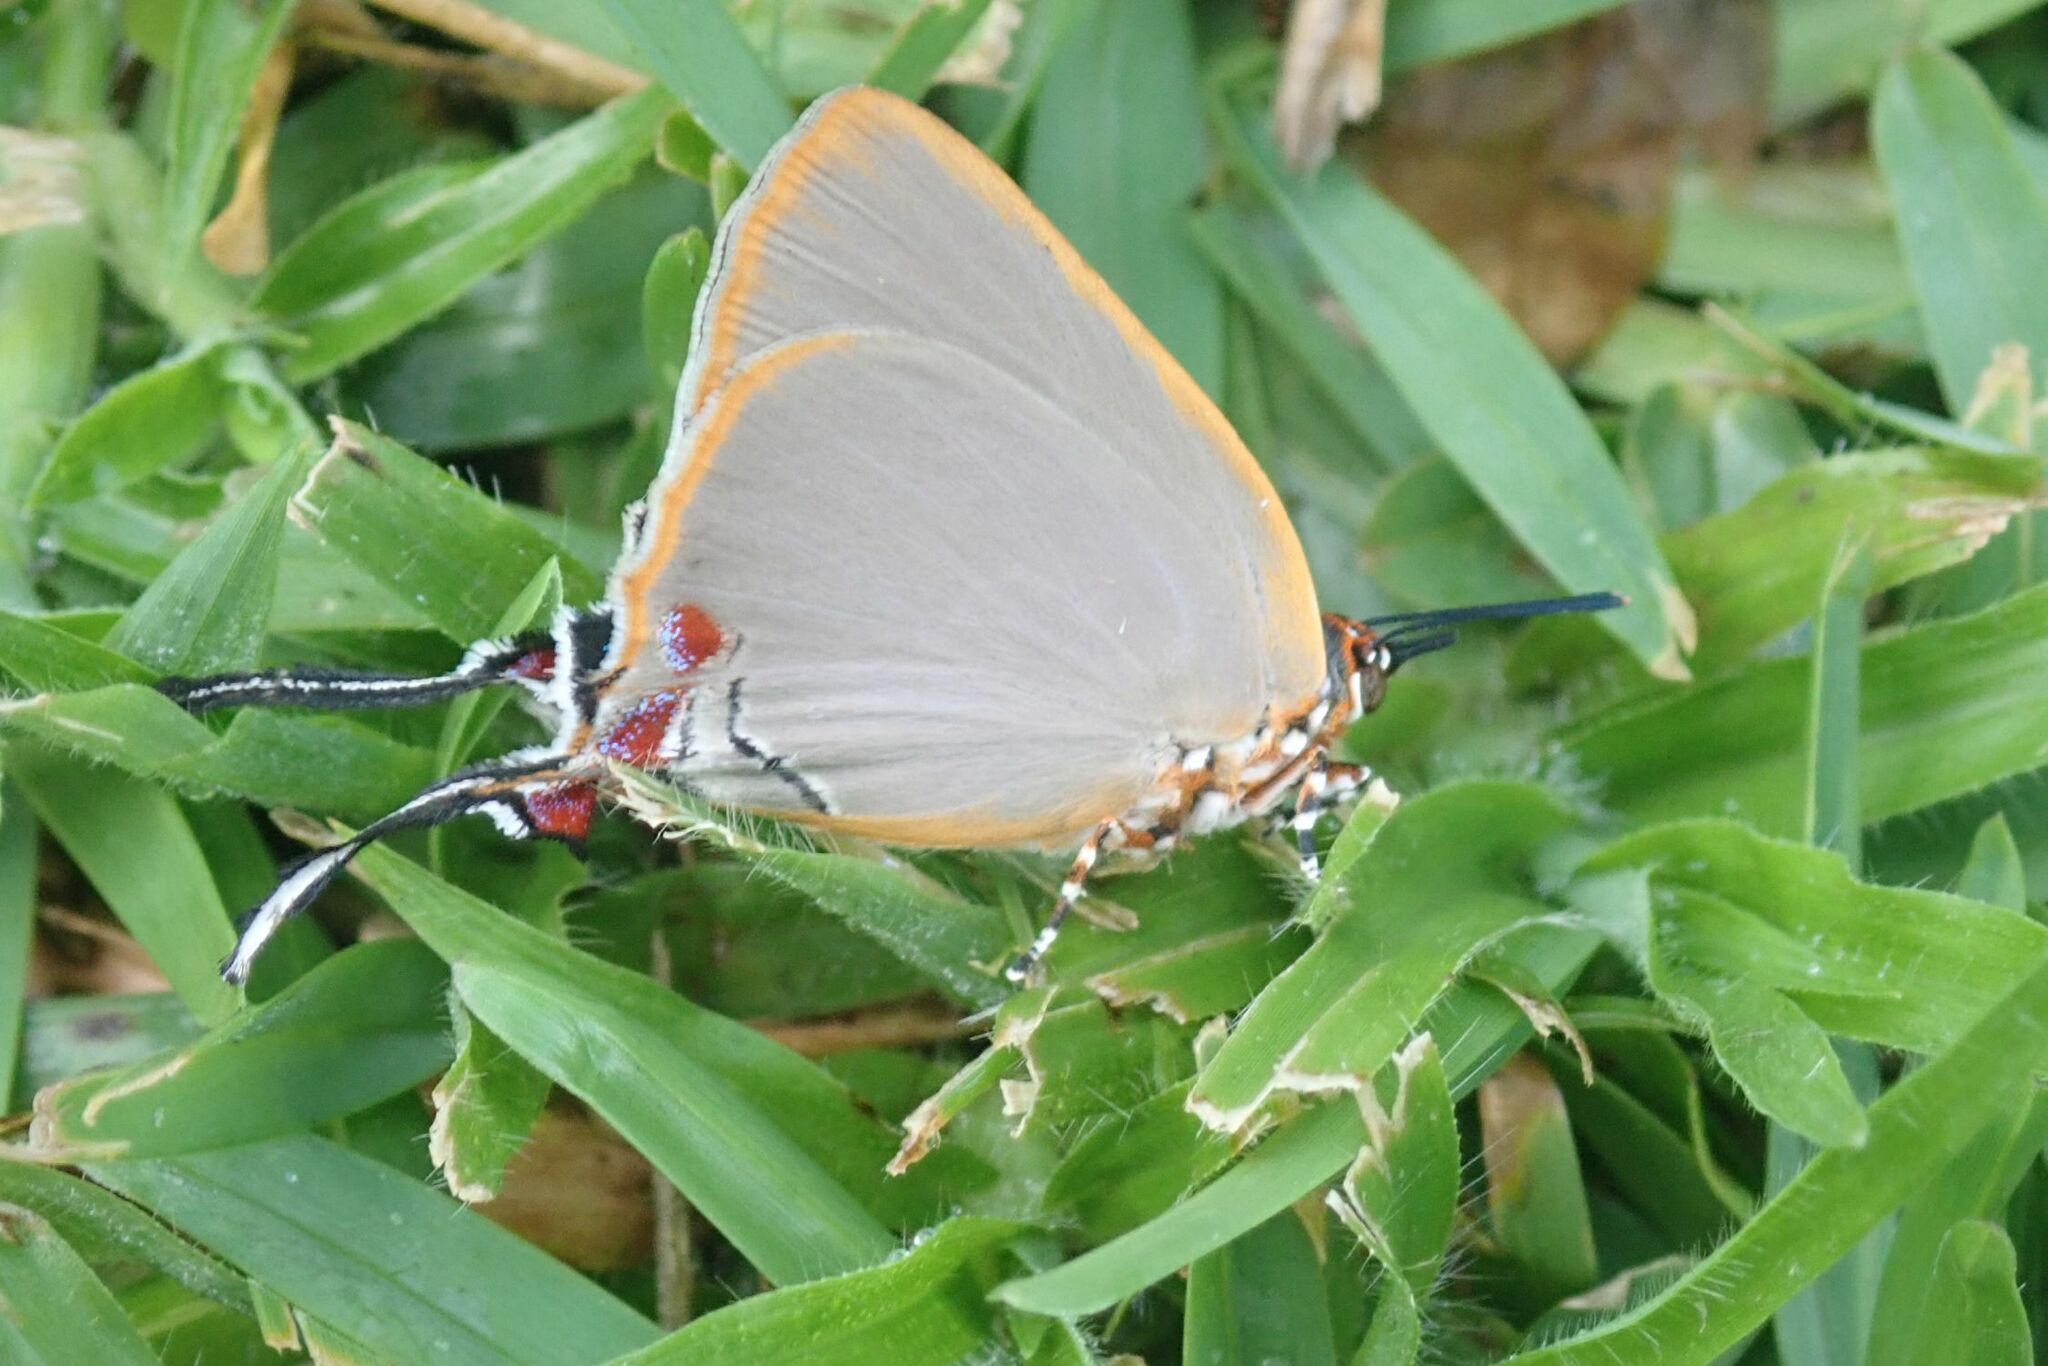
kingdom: Animalia
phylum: Arthropoda
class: Insecta
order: Lepidoptera
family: Lycaenidae
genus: Myrina
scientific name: Myrina dermaptera
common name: Lesser fig-tree blue
